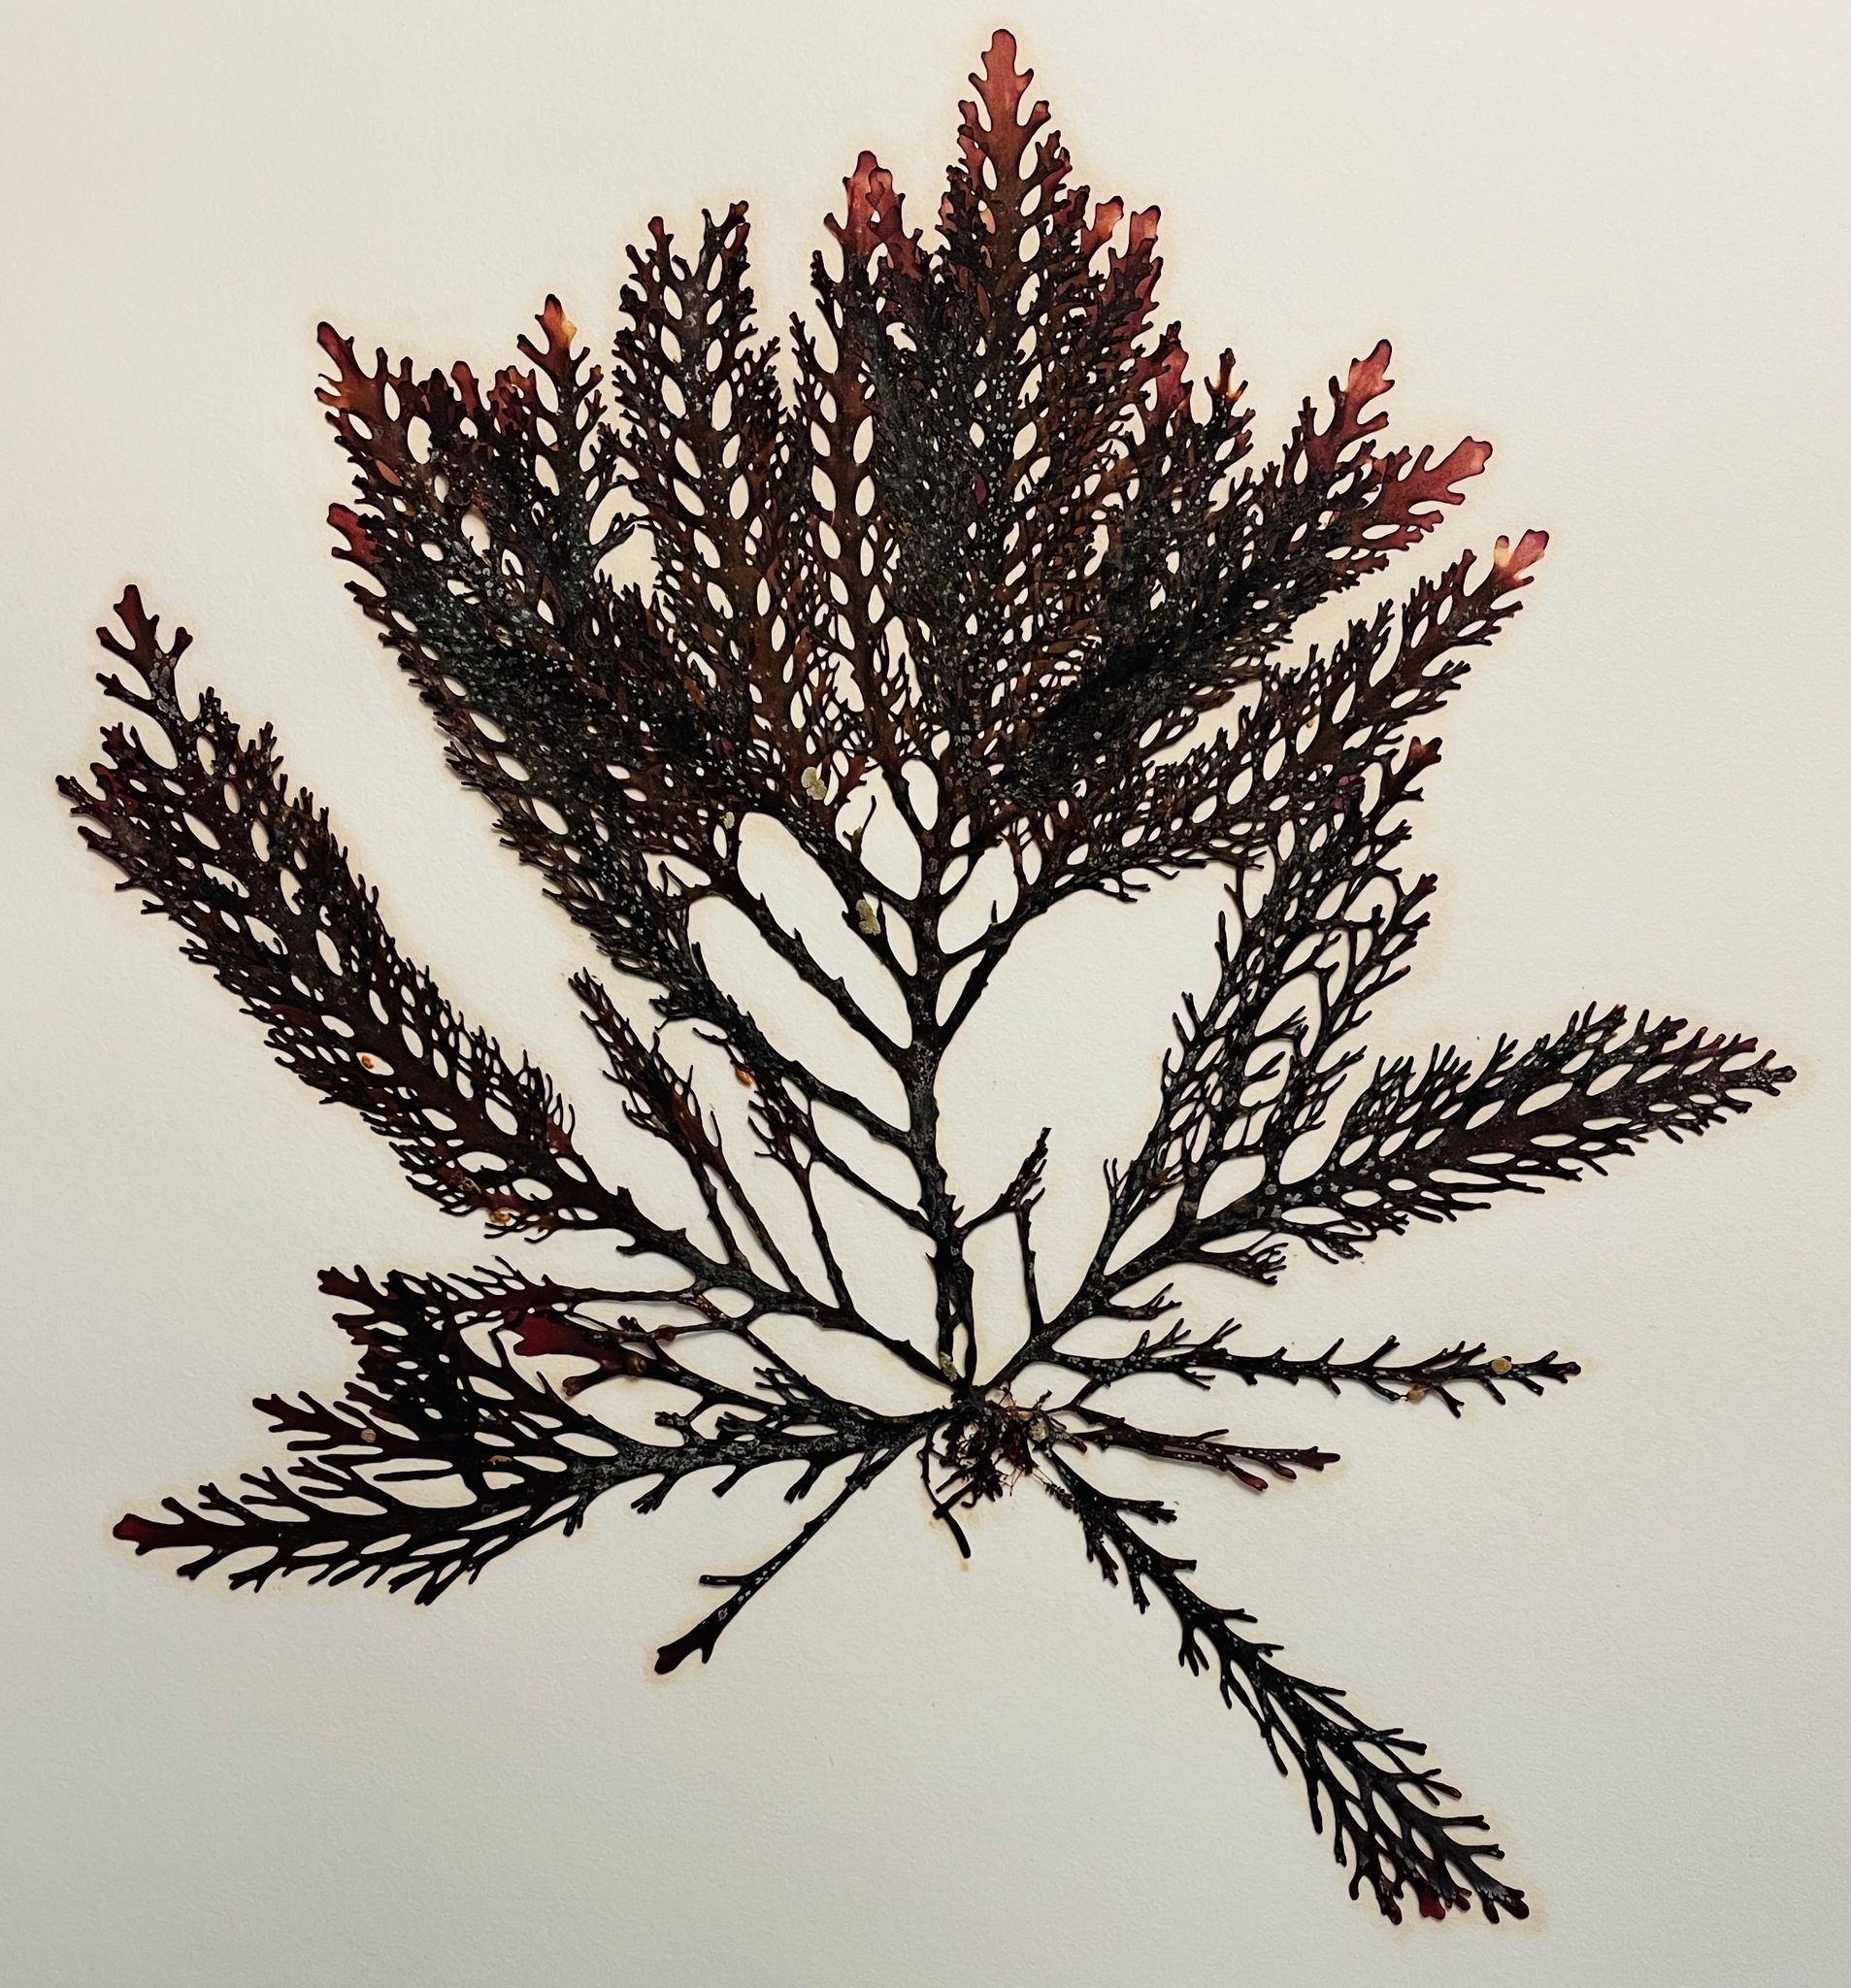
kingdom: Plantae
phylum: Rhodophyta
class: Florideophyceae
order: Ceramiales
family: Rhodomelaceae
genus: Osmundea
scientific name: Osmundea spectabilis
